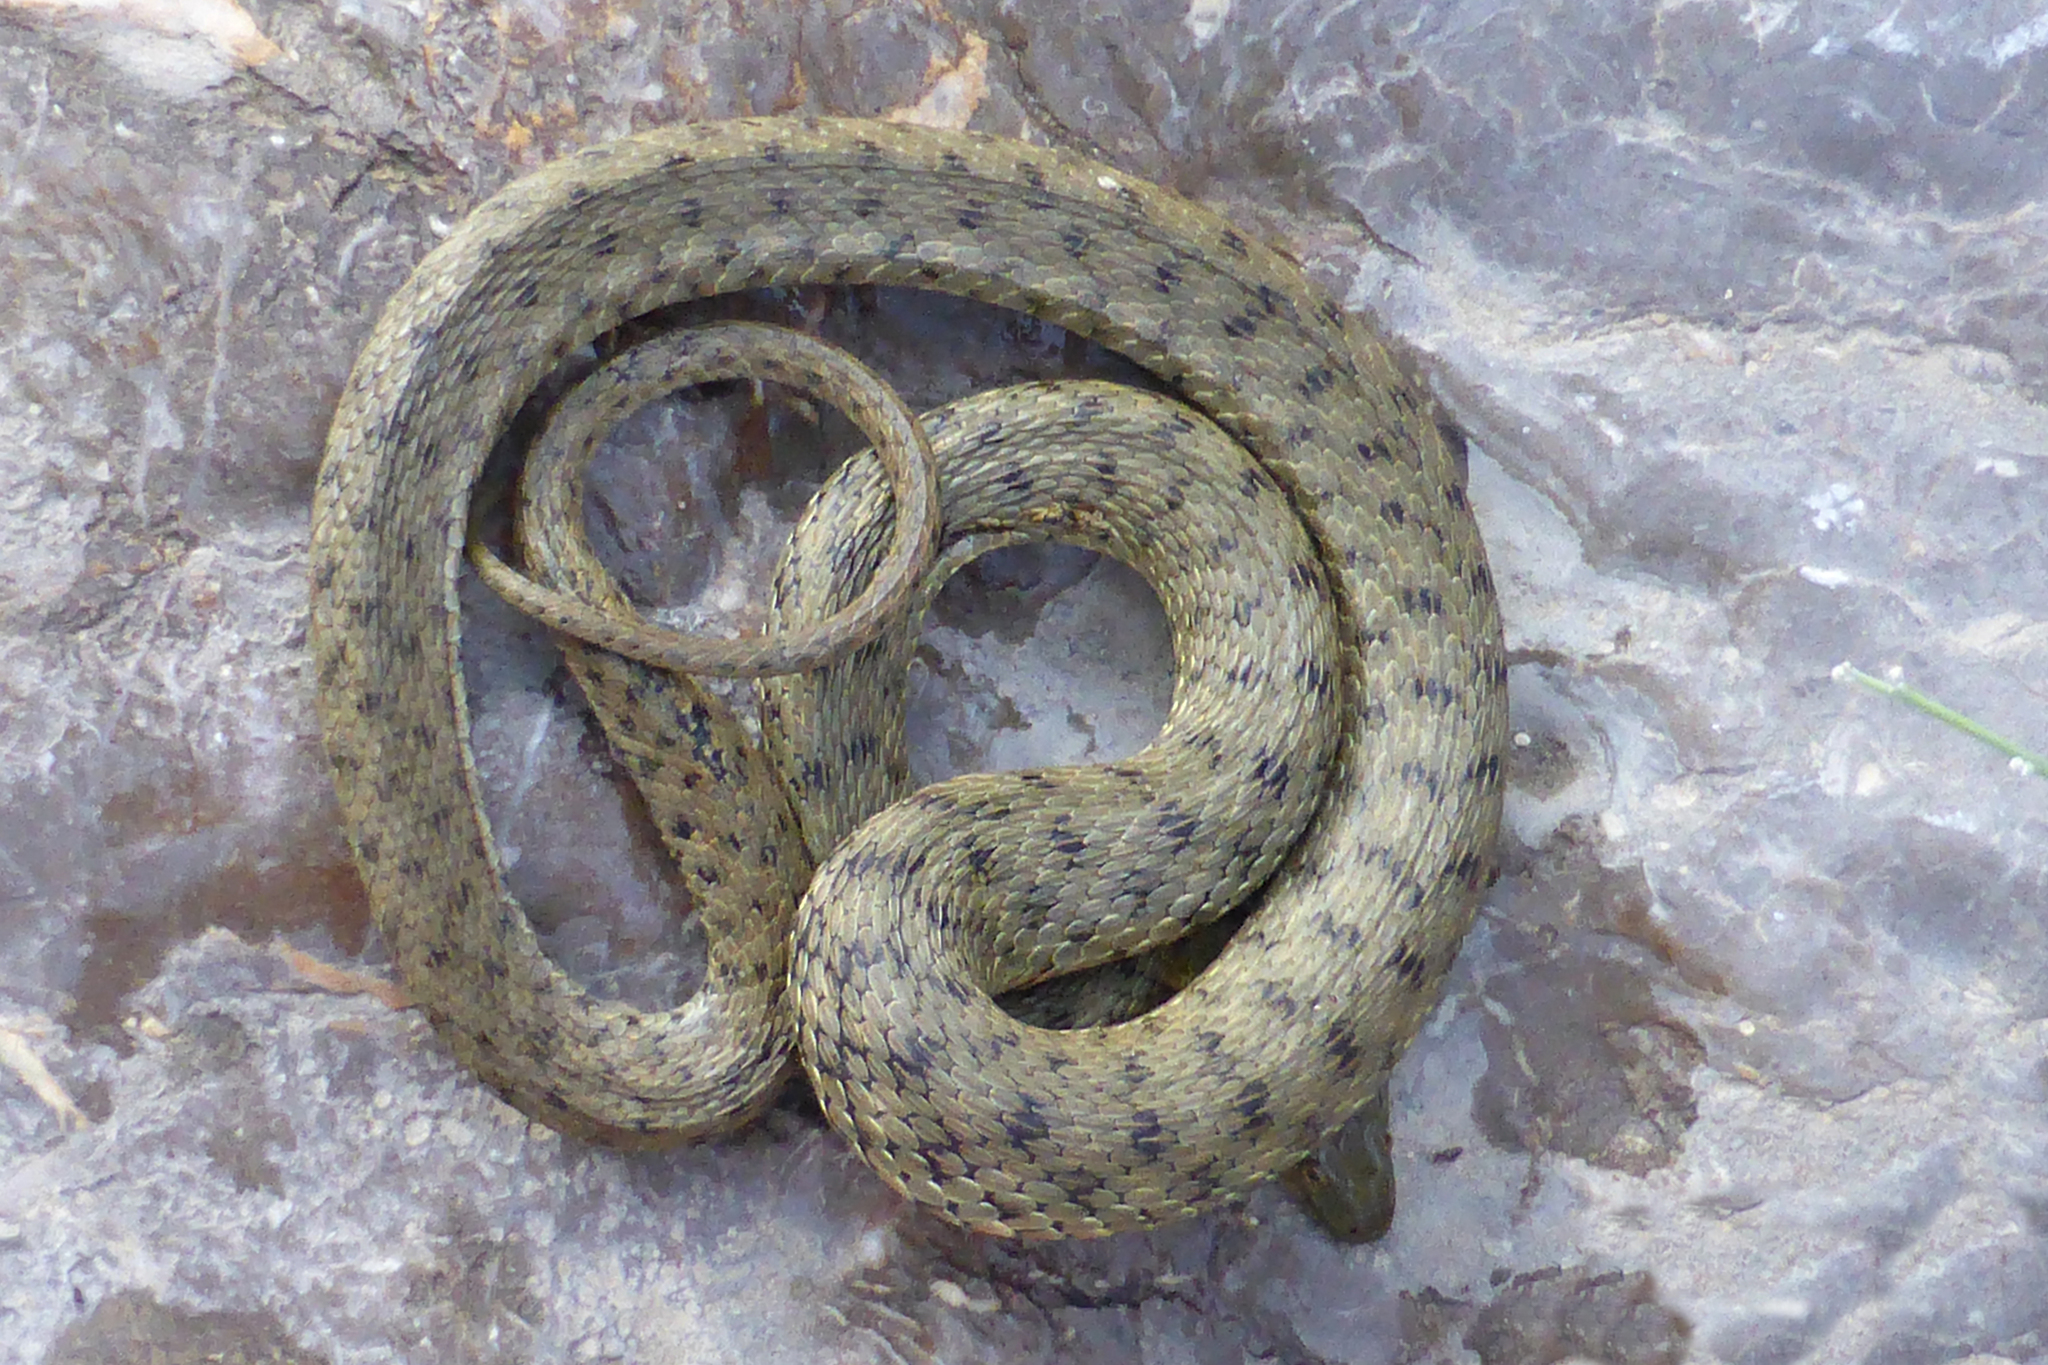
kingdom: Animalia
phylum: Chordata
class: Squamata
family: Colubridae
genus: Natrix
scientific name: Natrix tessellata
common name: Dice snake
